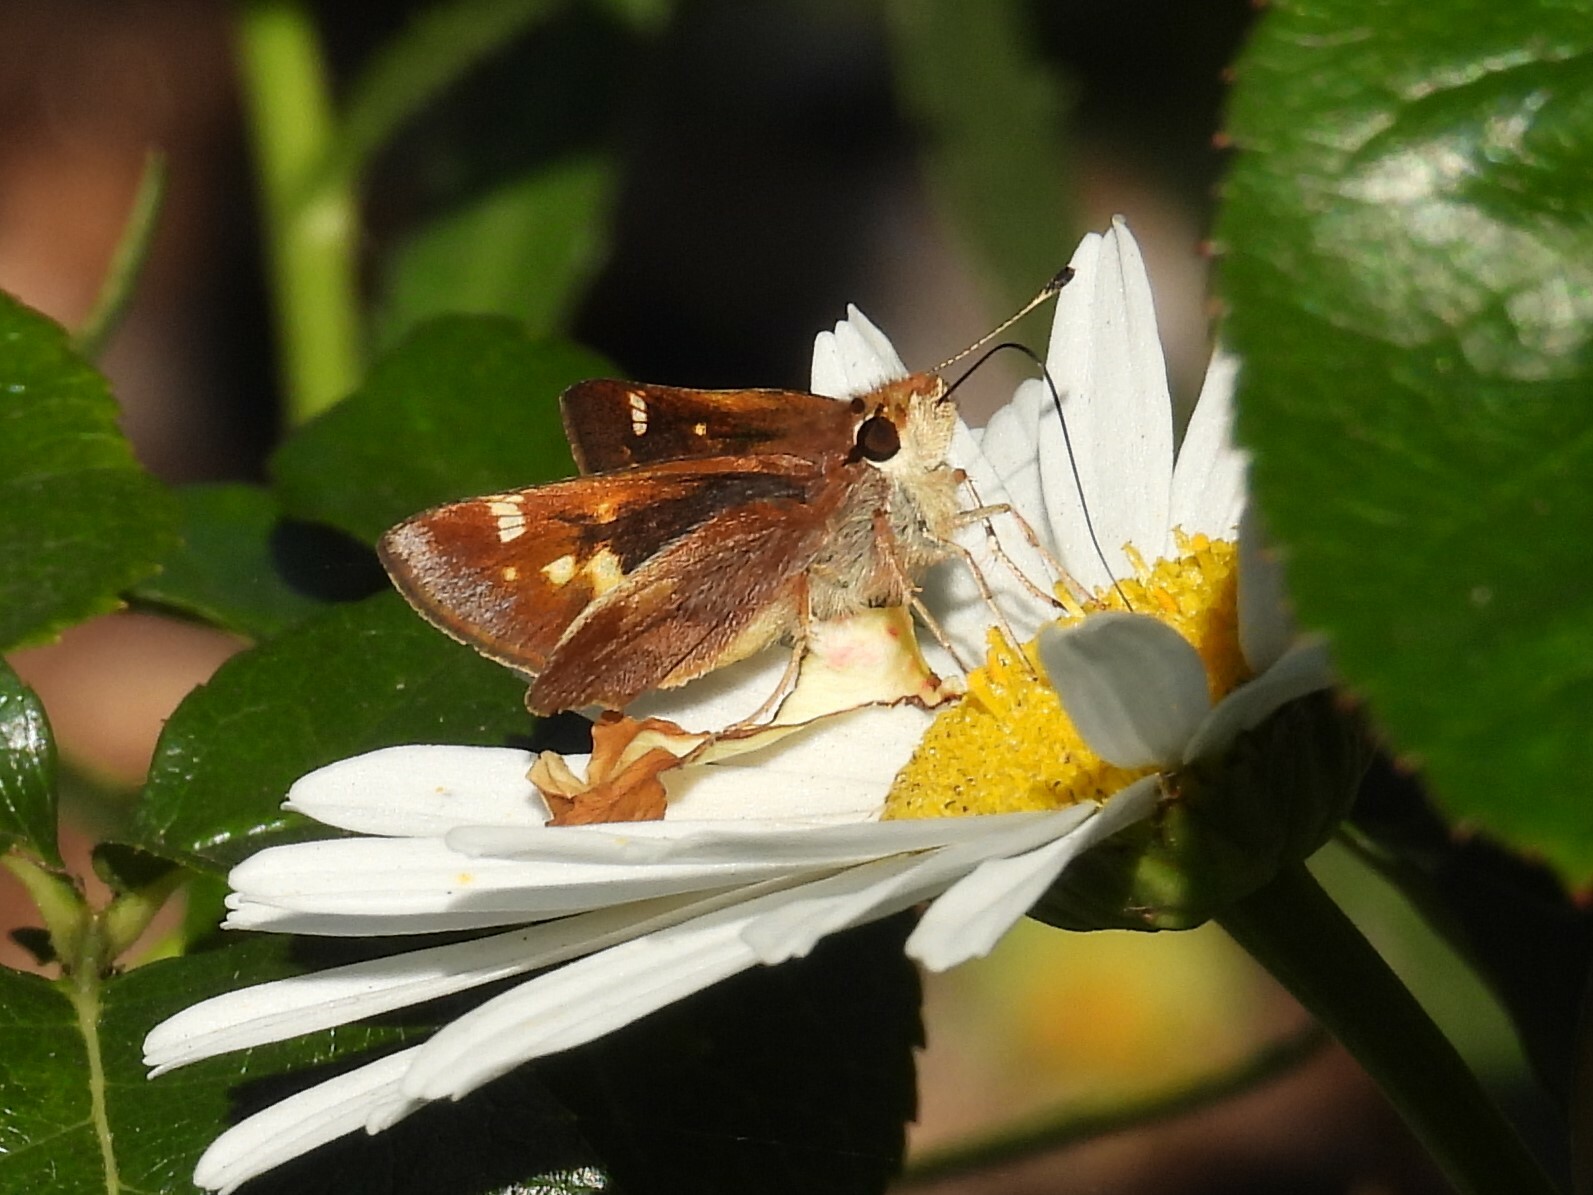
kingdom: Animalia
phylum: Arthropoda
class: Insecta
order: Lepidoptera
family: Hesperiidae
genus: Lon
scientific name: Lon melane
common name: Umber skipper
